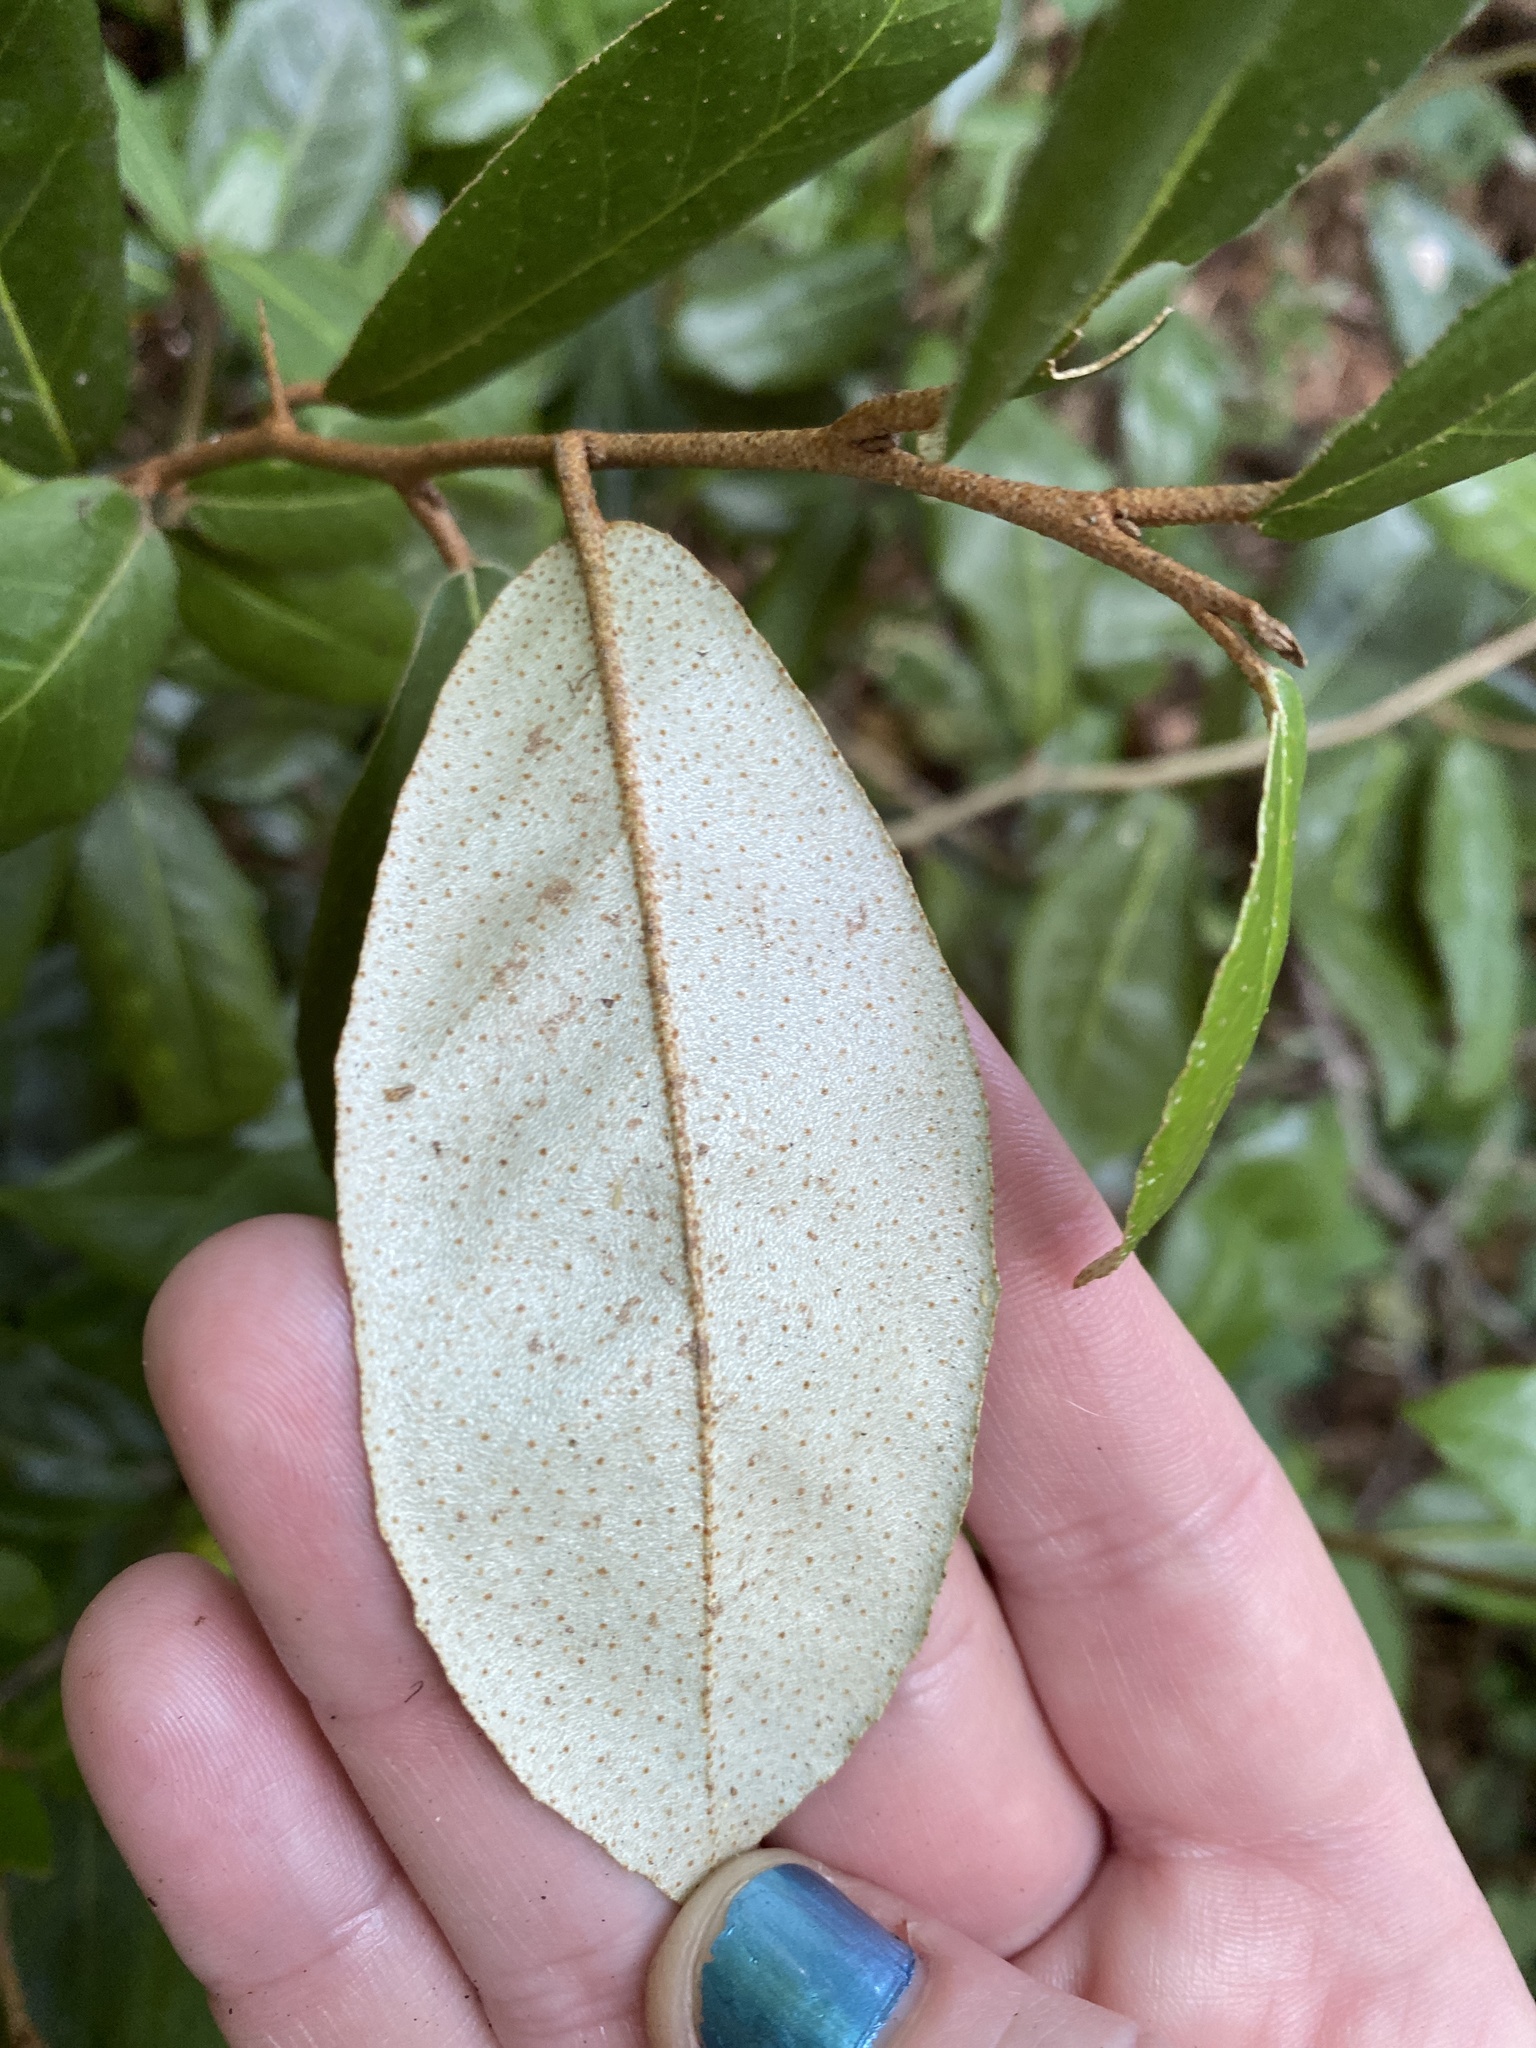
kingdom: Plantae
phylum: Tracheophyta
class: Magnoliopsida
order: Rosales
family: Elaeagnaceae
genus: Elaeagnus
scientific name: Elaeagnus pungens
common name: Spiny oleaster
